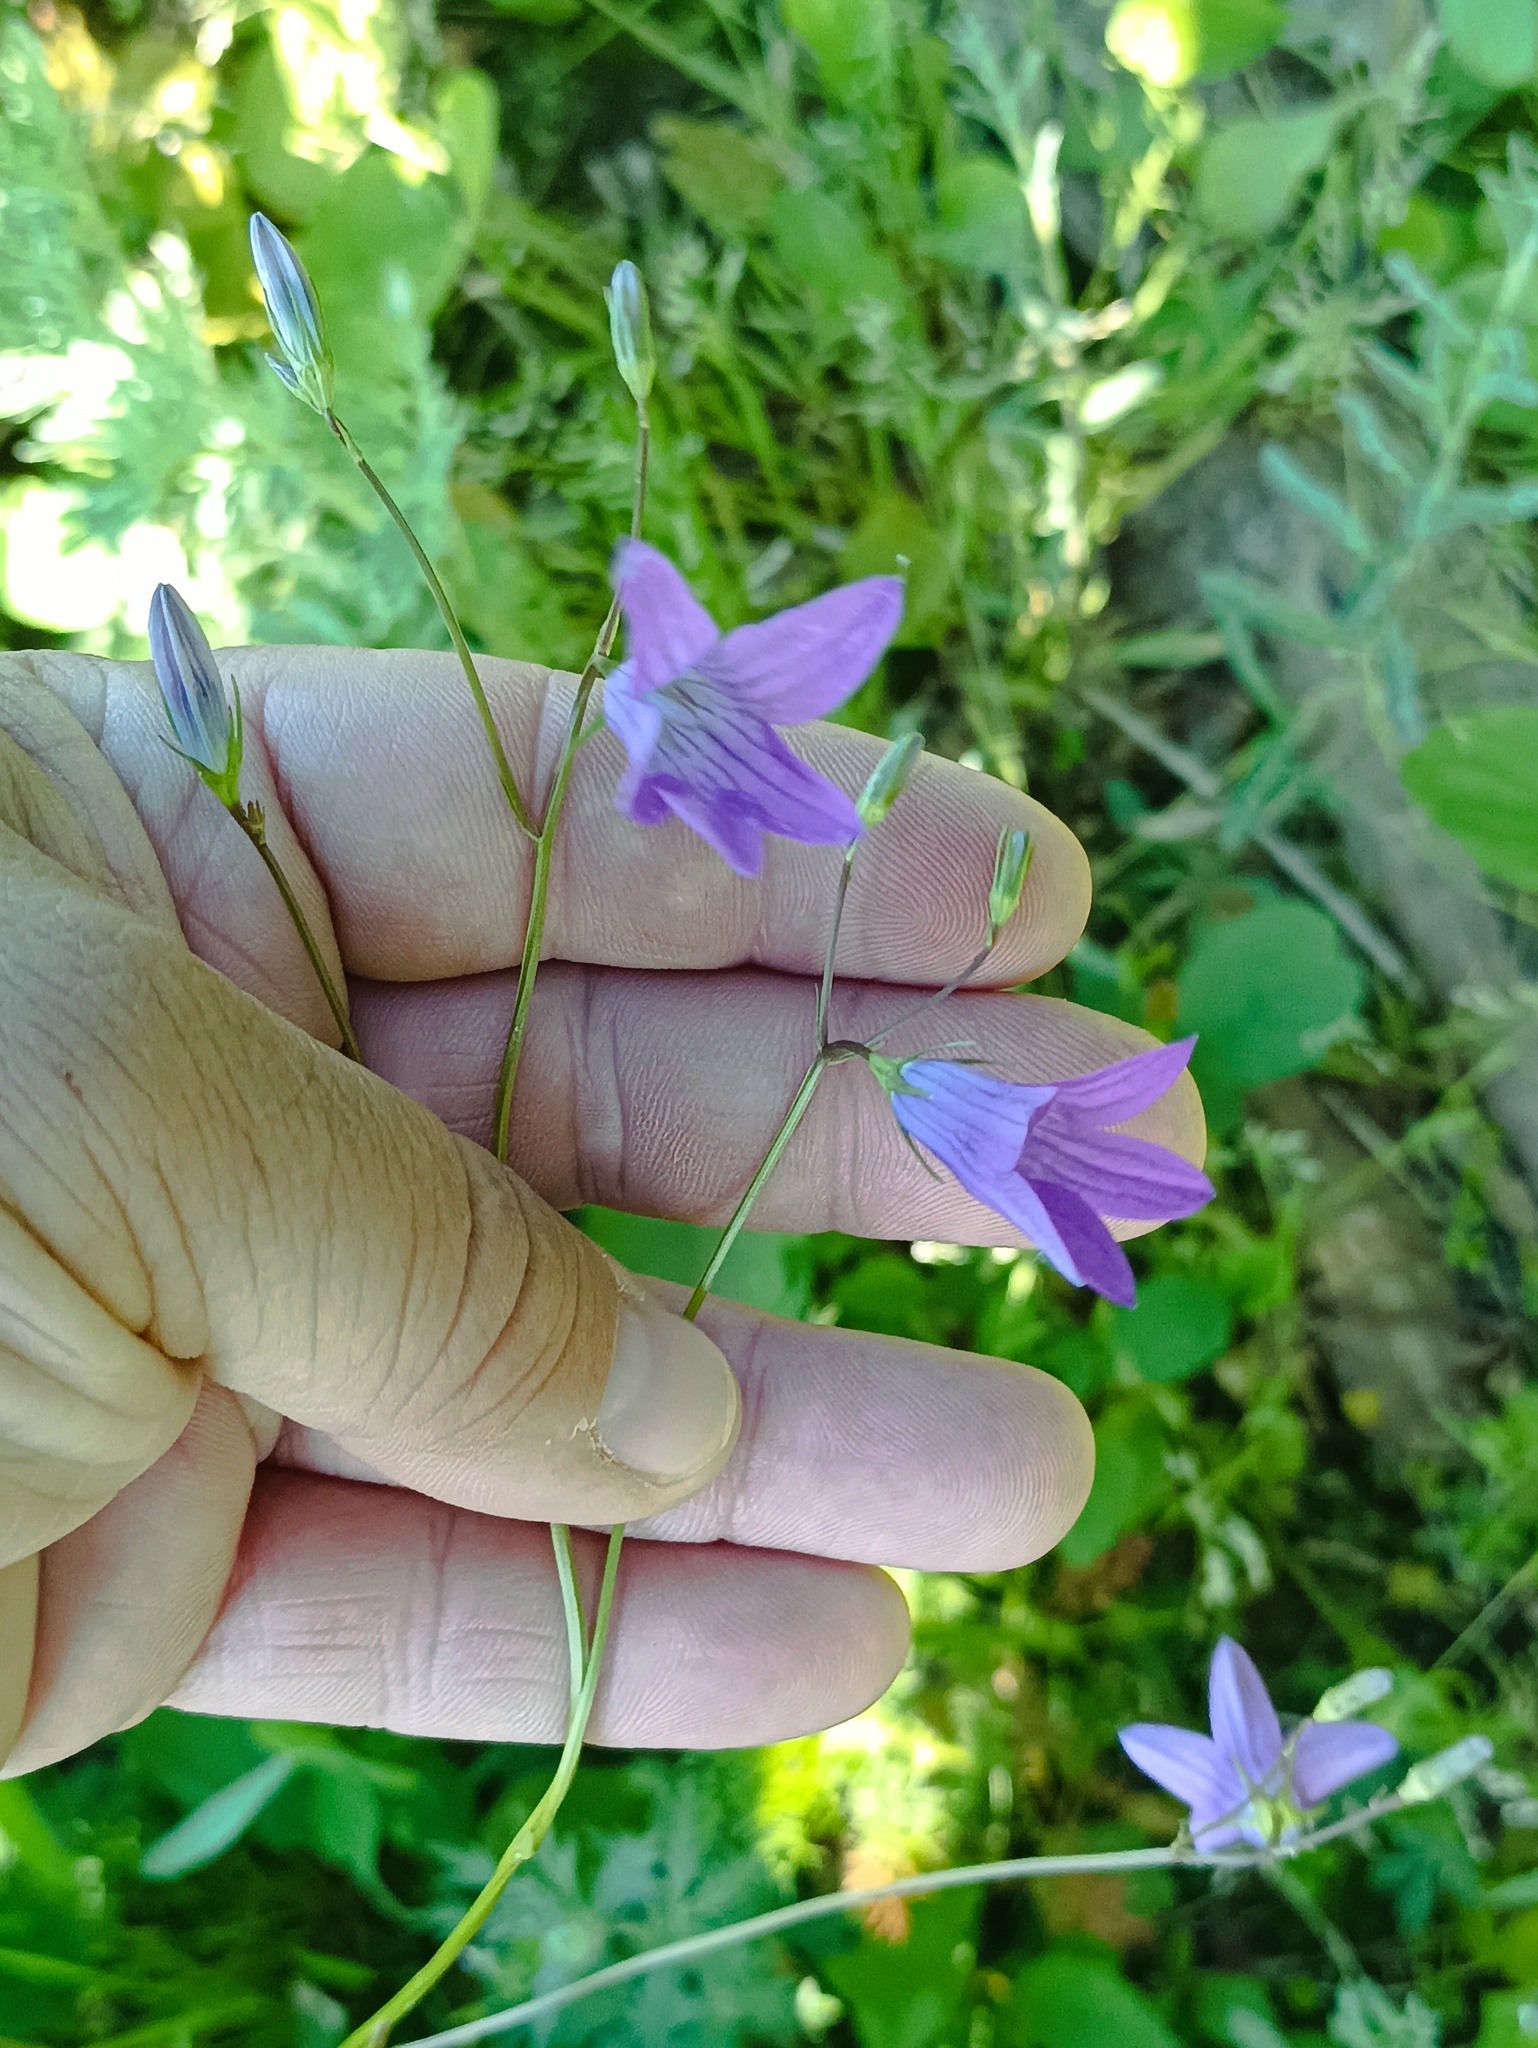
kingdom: Plantae
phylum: Tracheophyta
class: Magnoliopsida
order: Asterales
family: Campanulaceae
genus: Campanula
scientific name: Campanula patula
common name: Spreading bellflower
